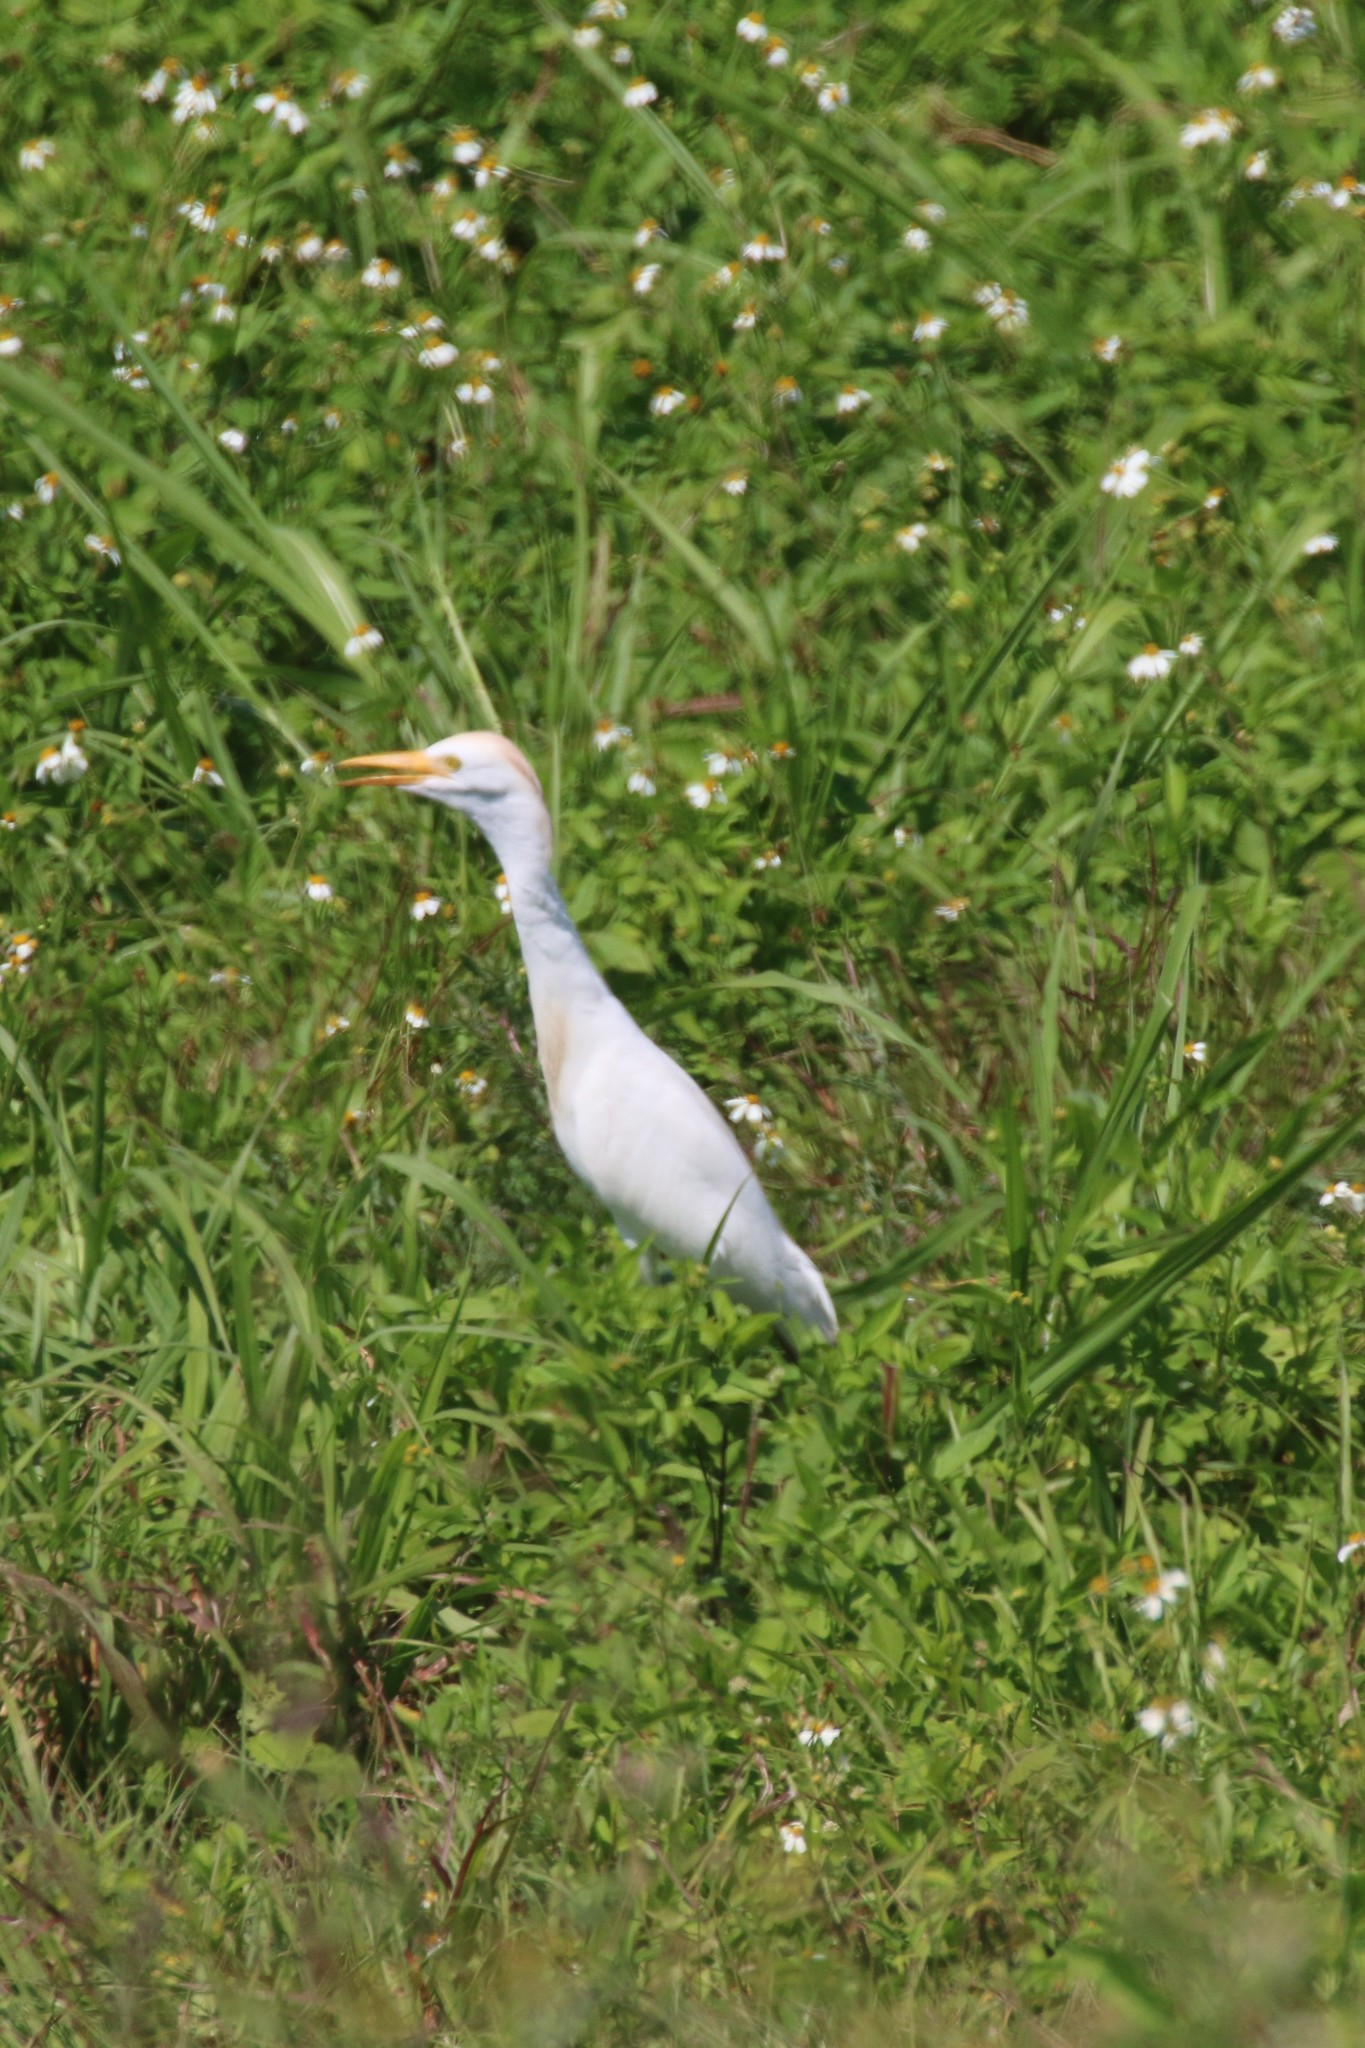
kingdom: Animalia
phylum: Chordata
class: Aves
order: Pelecaniformes
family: Ardeidae
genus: Bubulcus
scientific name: Bubulcus ibis
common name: Cattle egret
